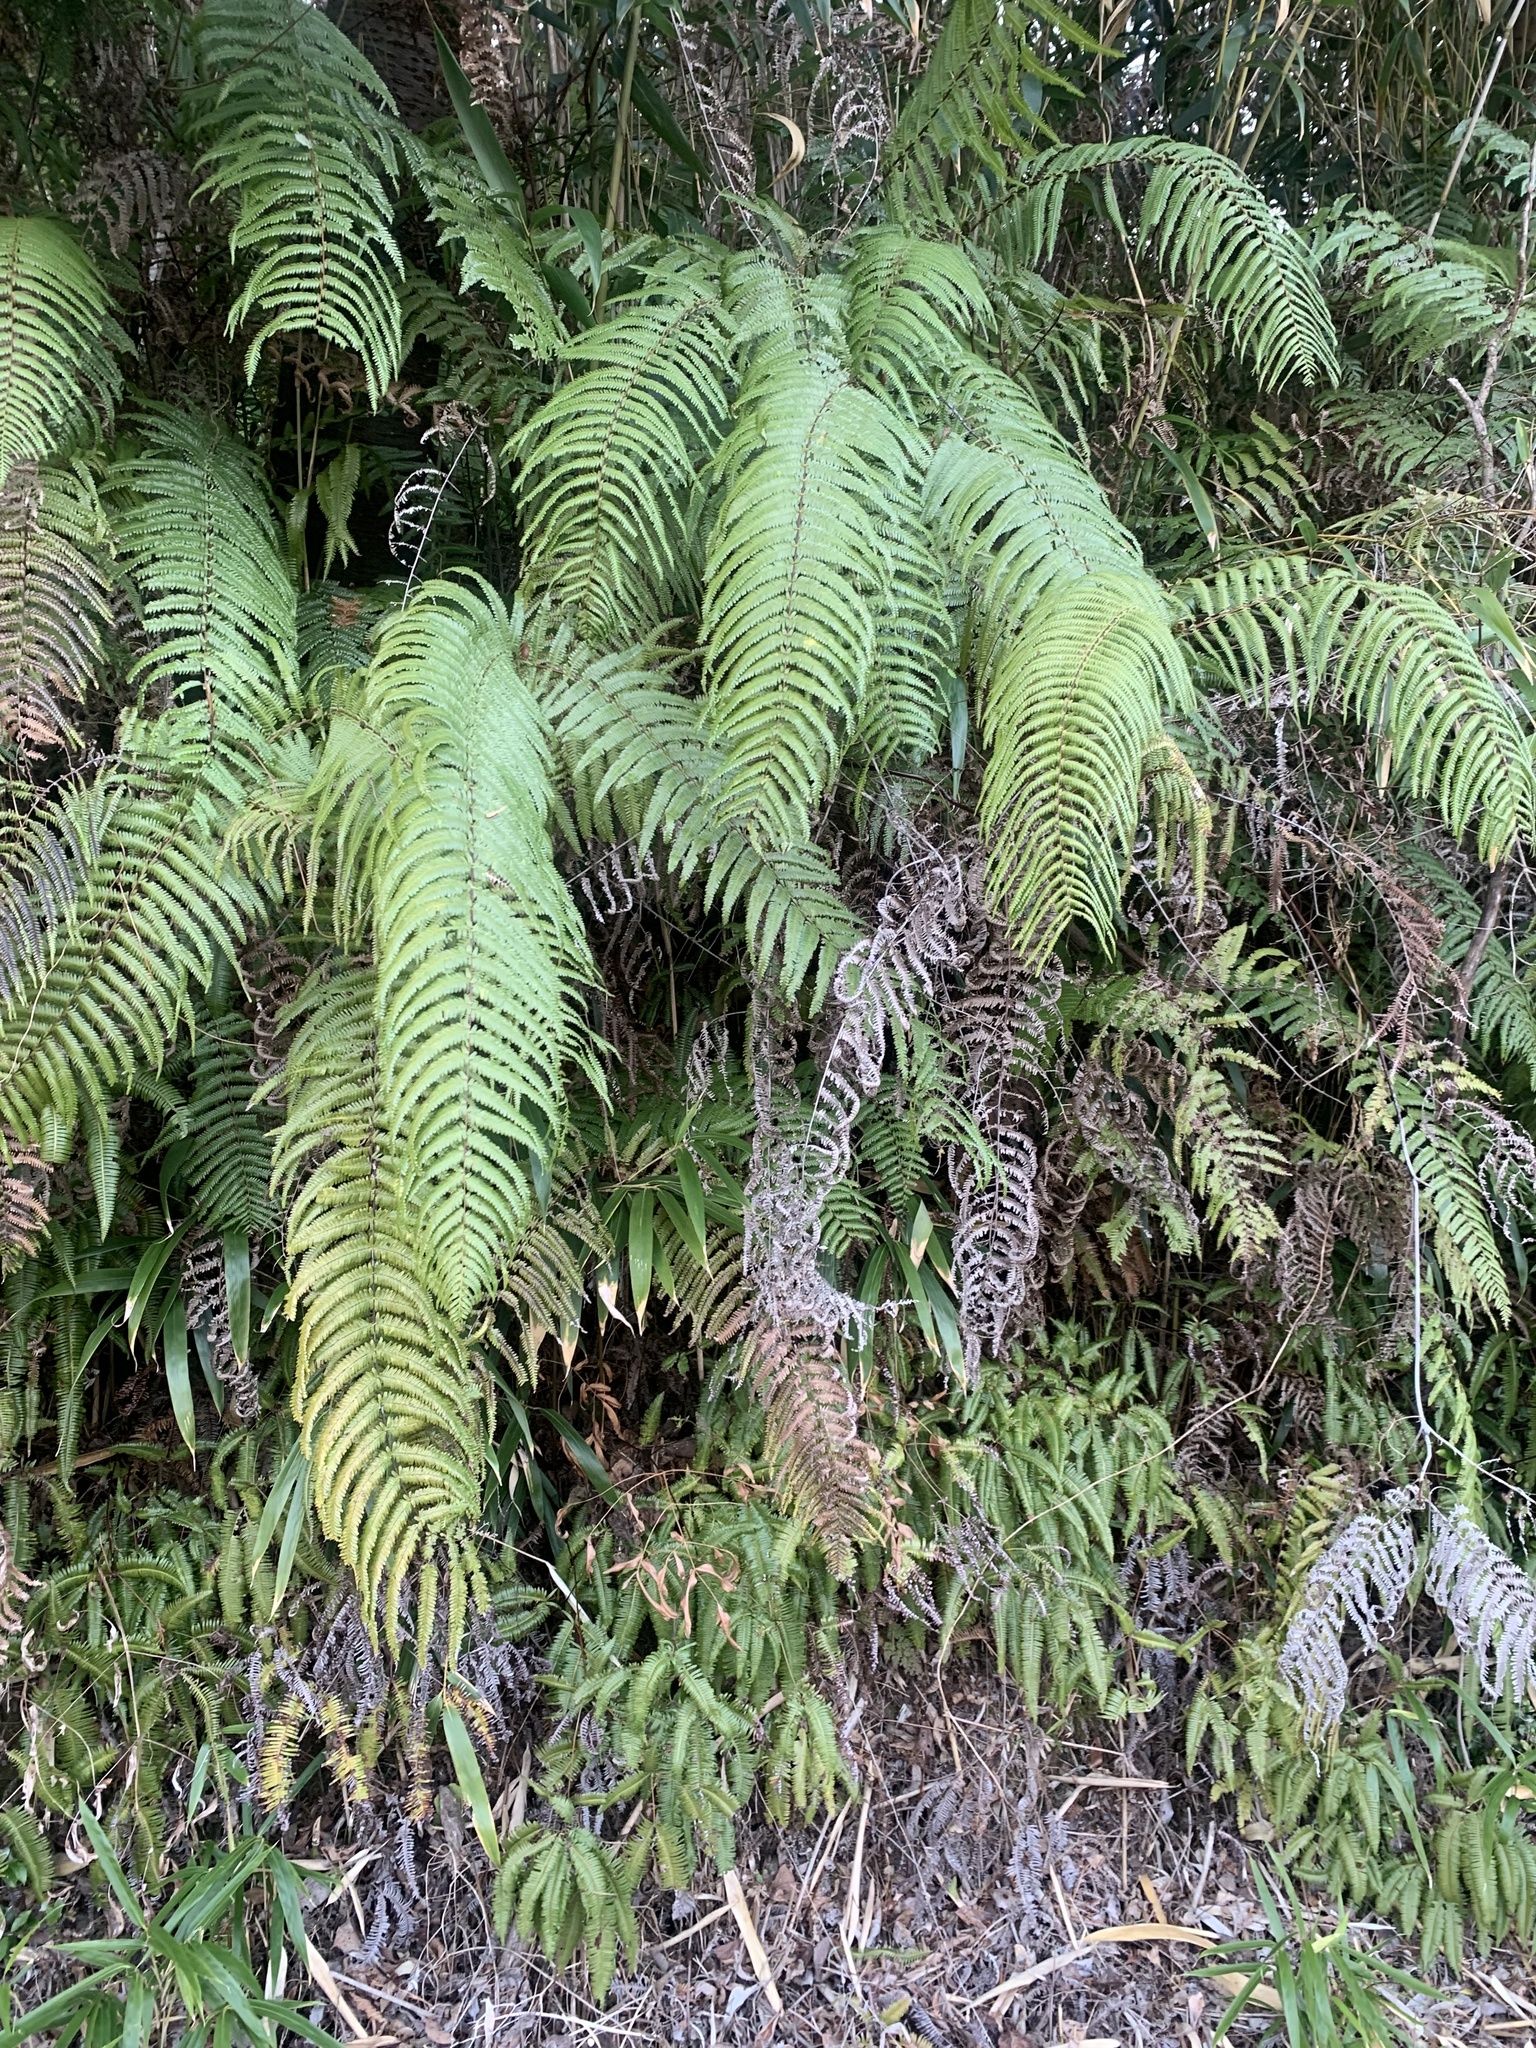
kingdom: Plantae
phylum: Tracheophyta
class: Polypodiopsida
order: Gleicheniales
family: Gleicheniaceae
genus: Diplopterygium
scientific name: Diplopterygium glaucum
